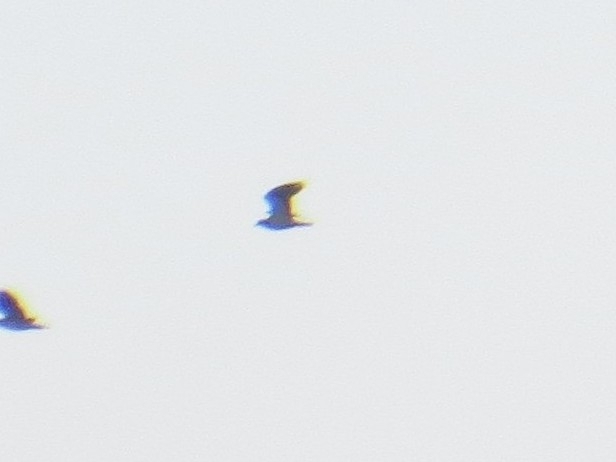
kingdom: Animalia
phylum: Chordata
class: Aves
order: Charadriiformes
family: Charadriidae
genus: Vanellus
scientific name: Vanellus vanellus
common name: Northern lapwing
